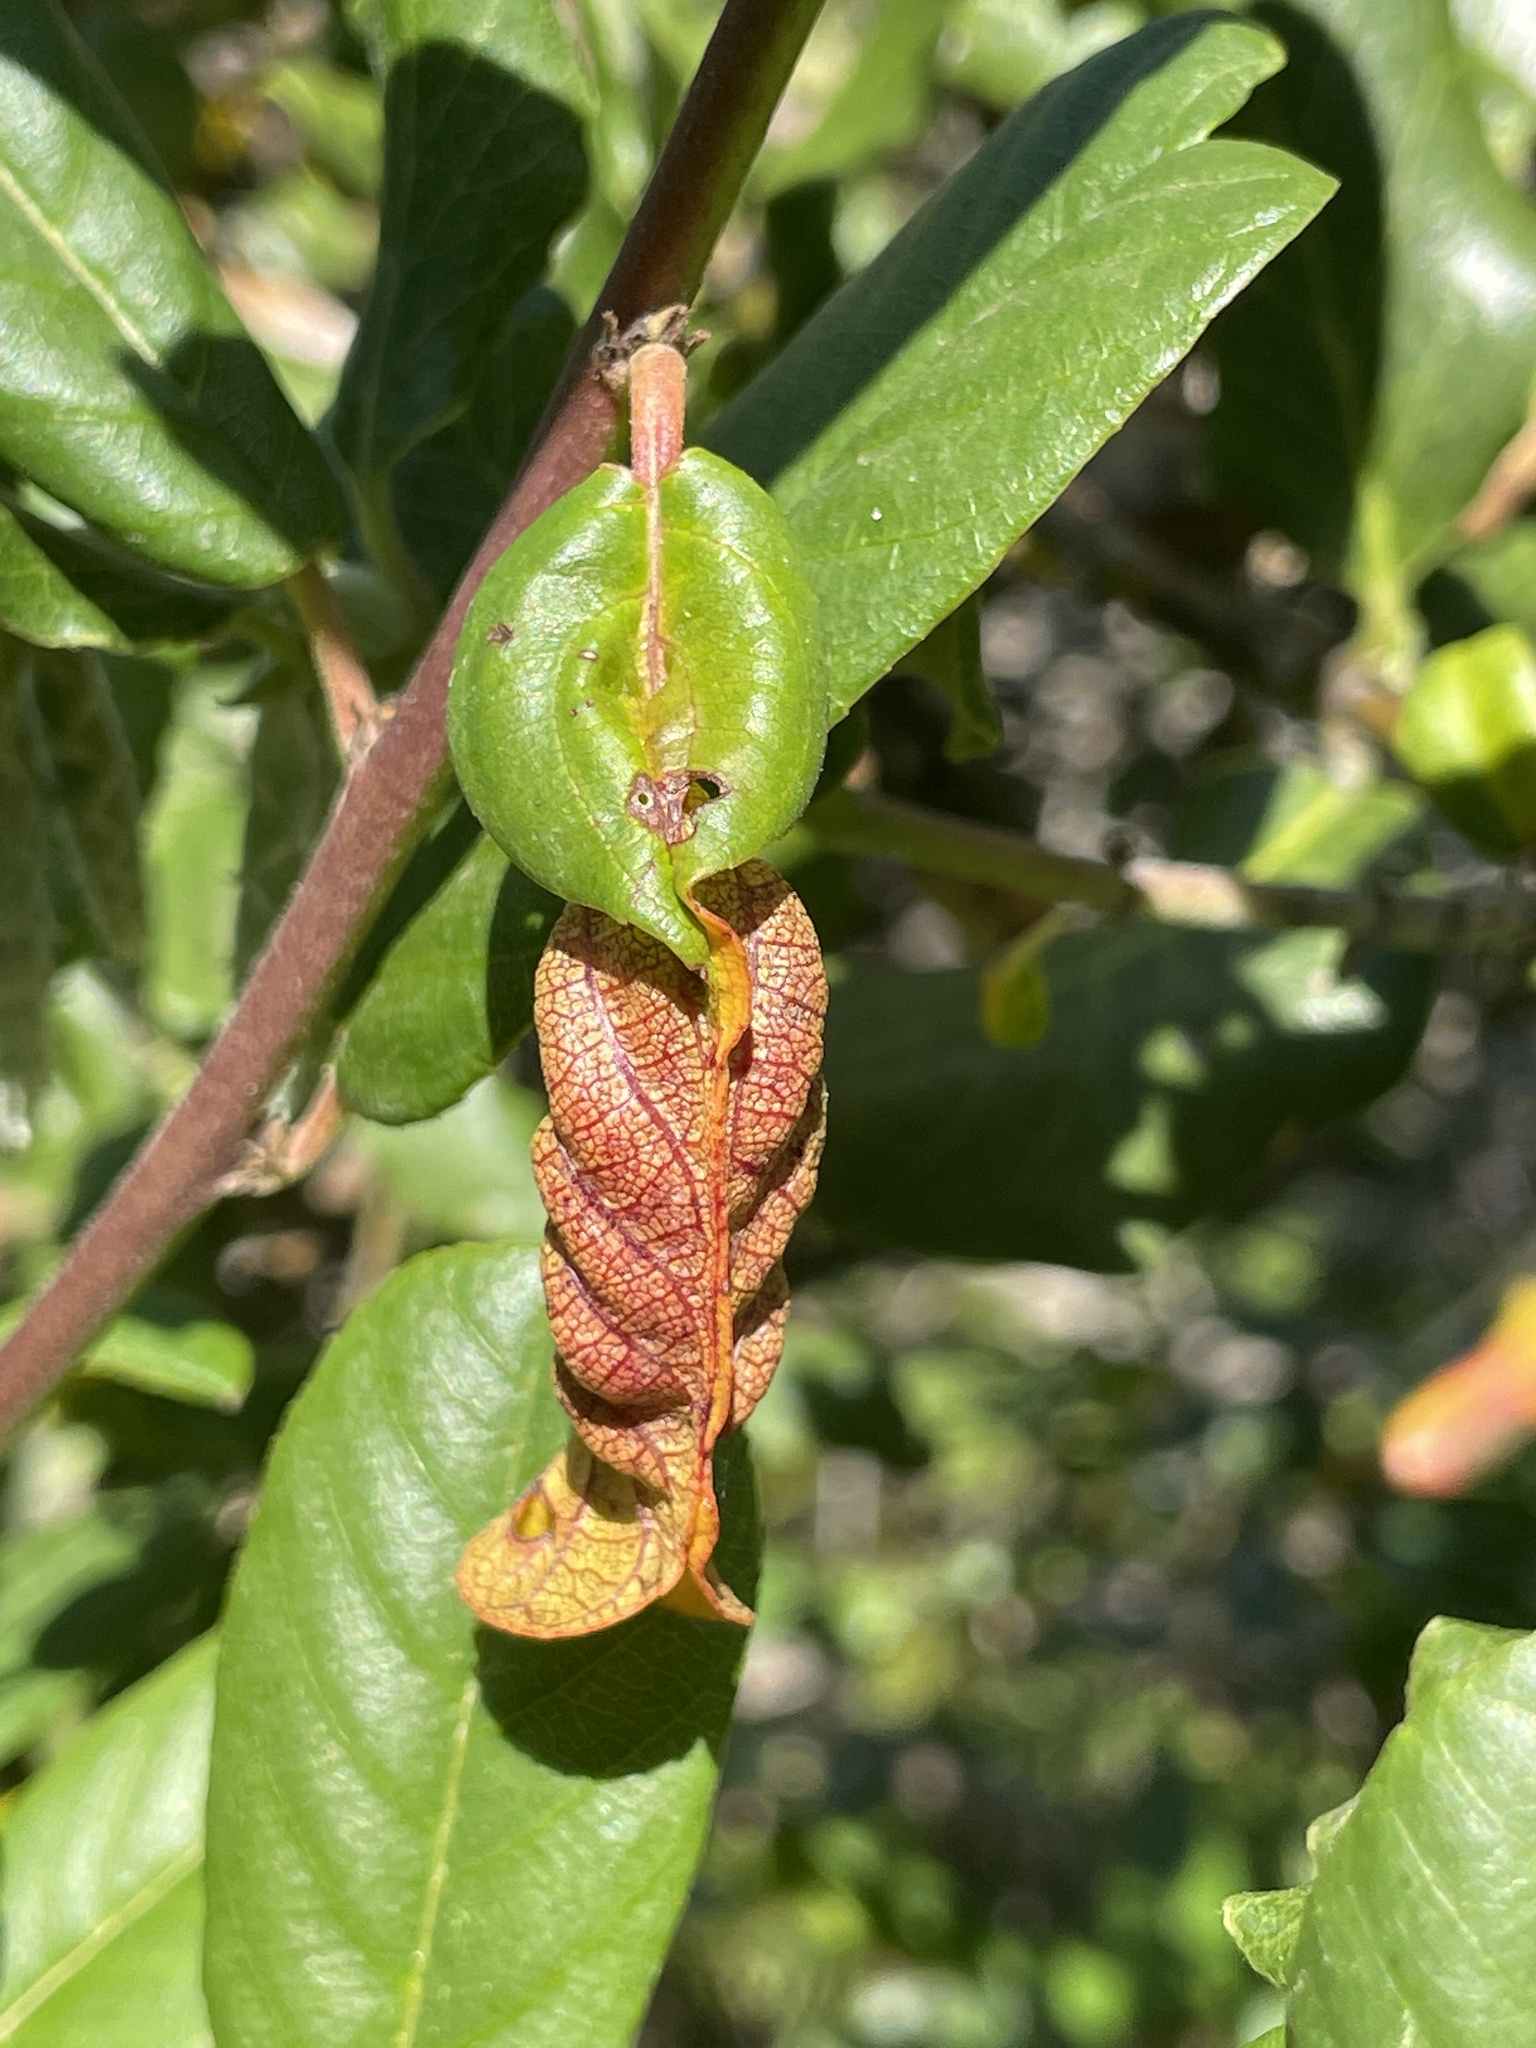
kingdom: Animalia
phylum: Arthropoda
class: Insecta
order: Lepidoptera
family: Cosmopterigidae
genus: Sorhagenia
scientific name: Sorhagenia nimbosus
